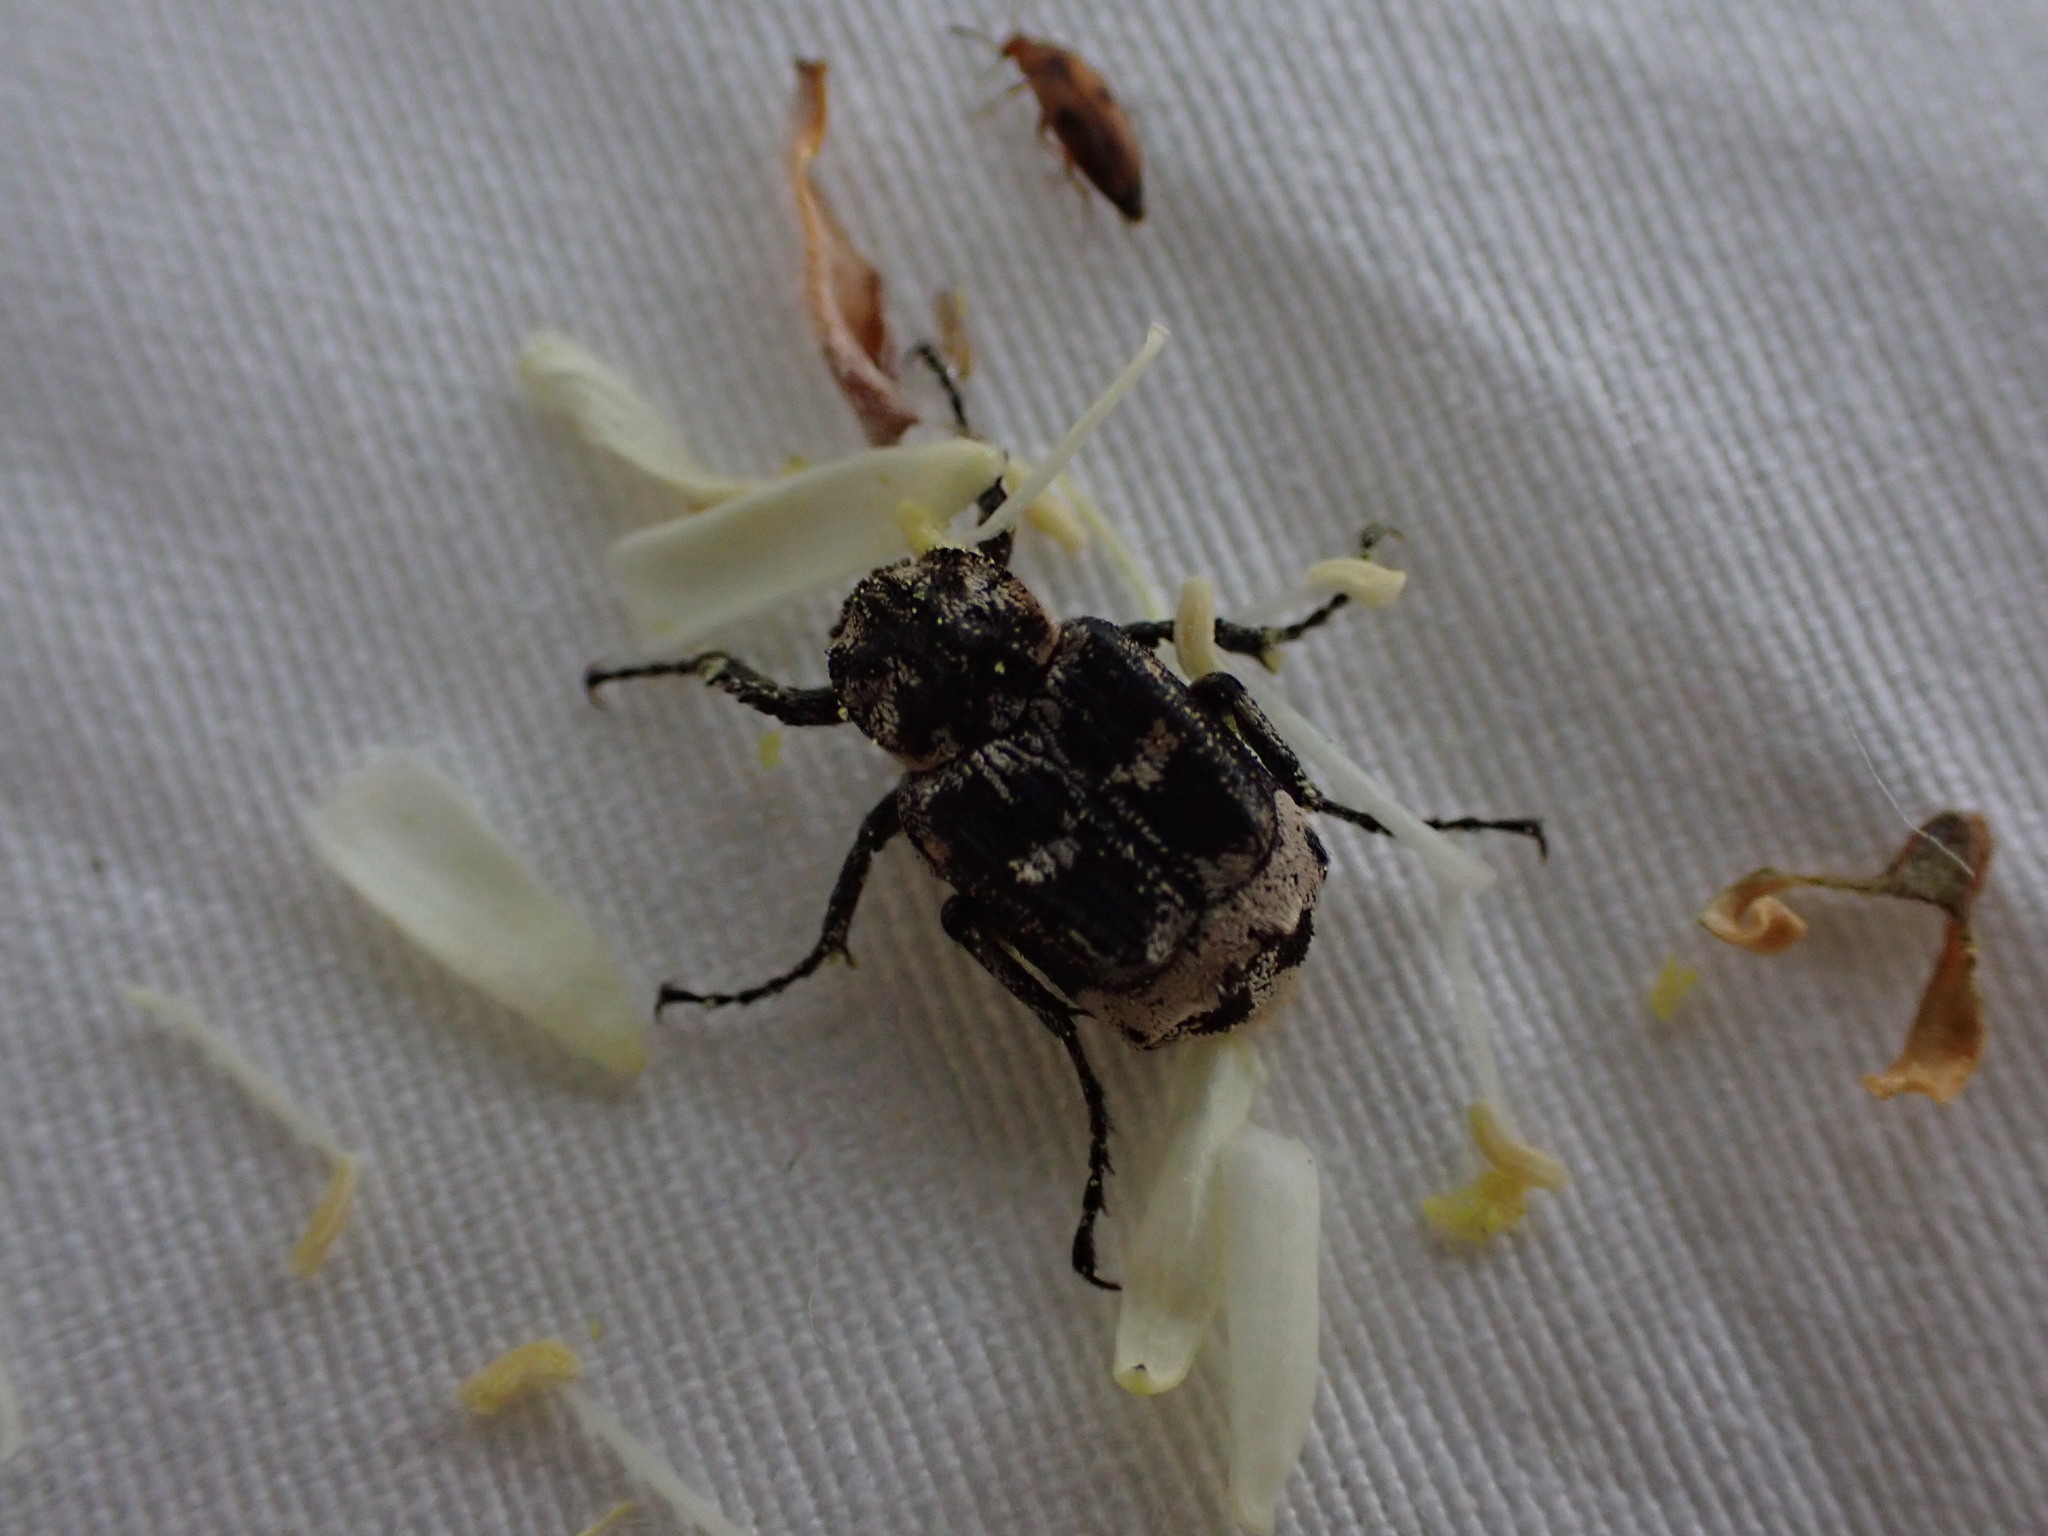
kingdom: Animalia
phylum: Arthropoda
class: Insecta
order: Coleoptera
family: Scarabaeidae
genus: Valgus
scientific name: Valgus hemipterus
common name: Bug flower chafer
